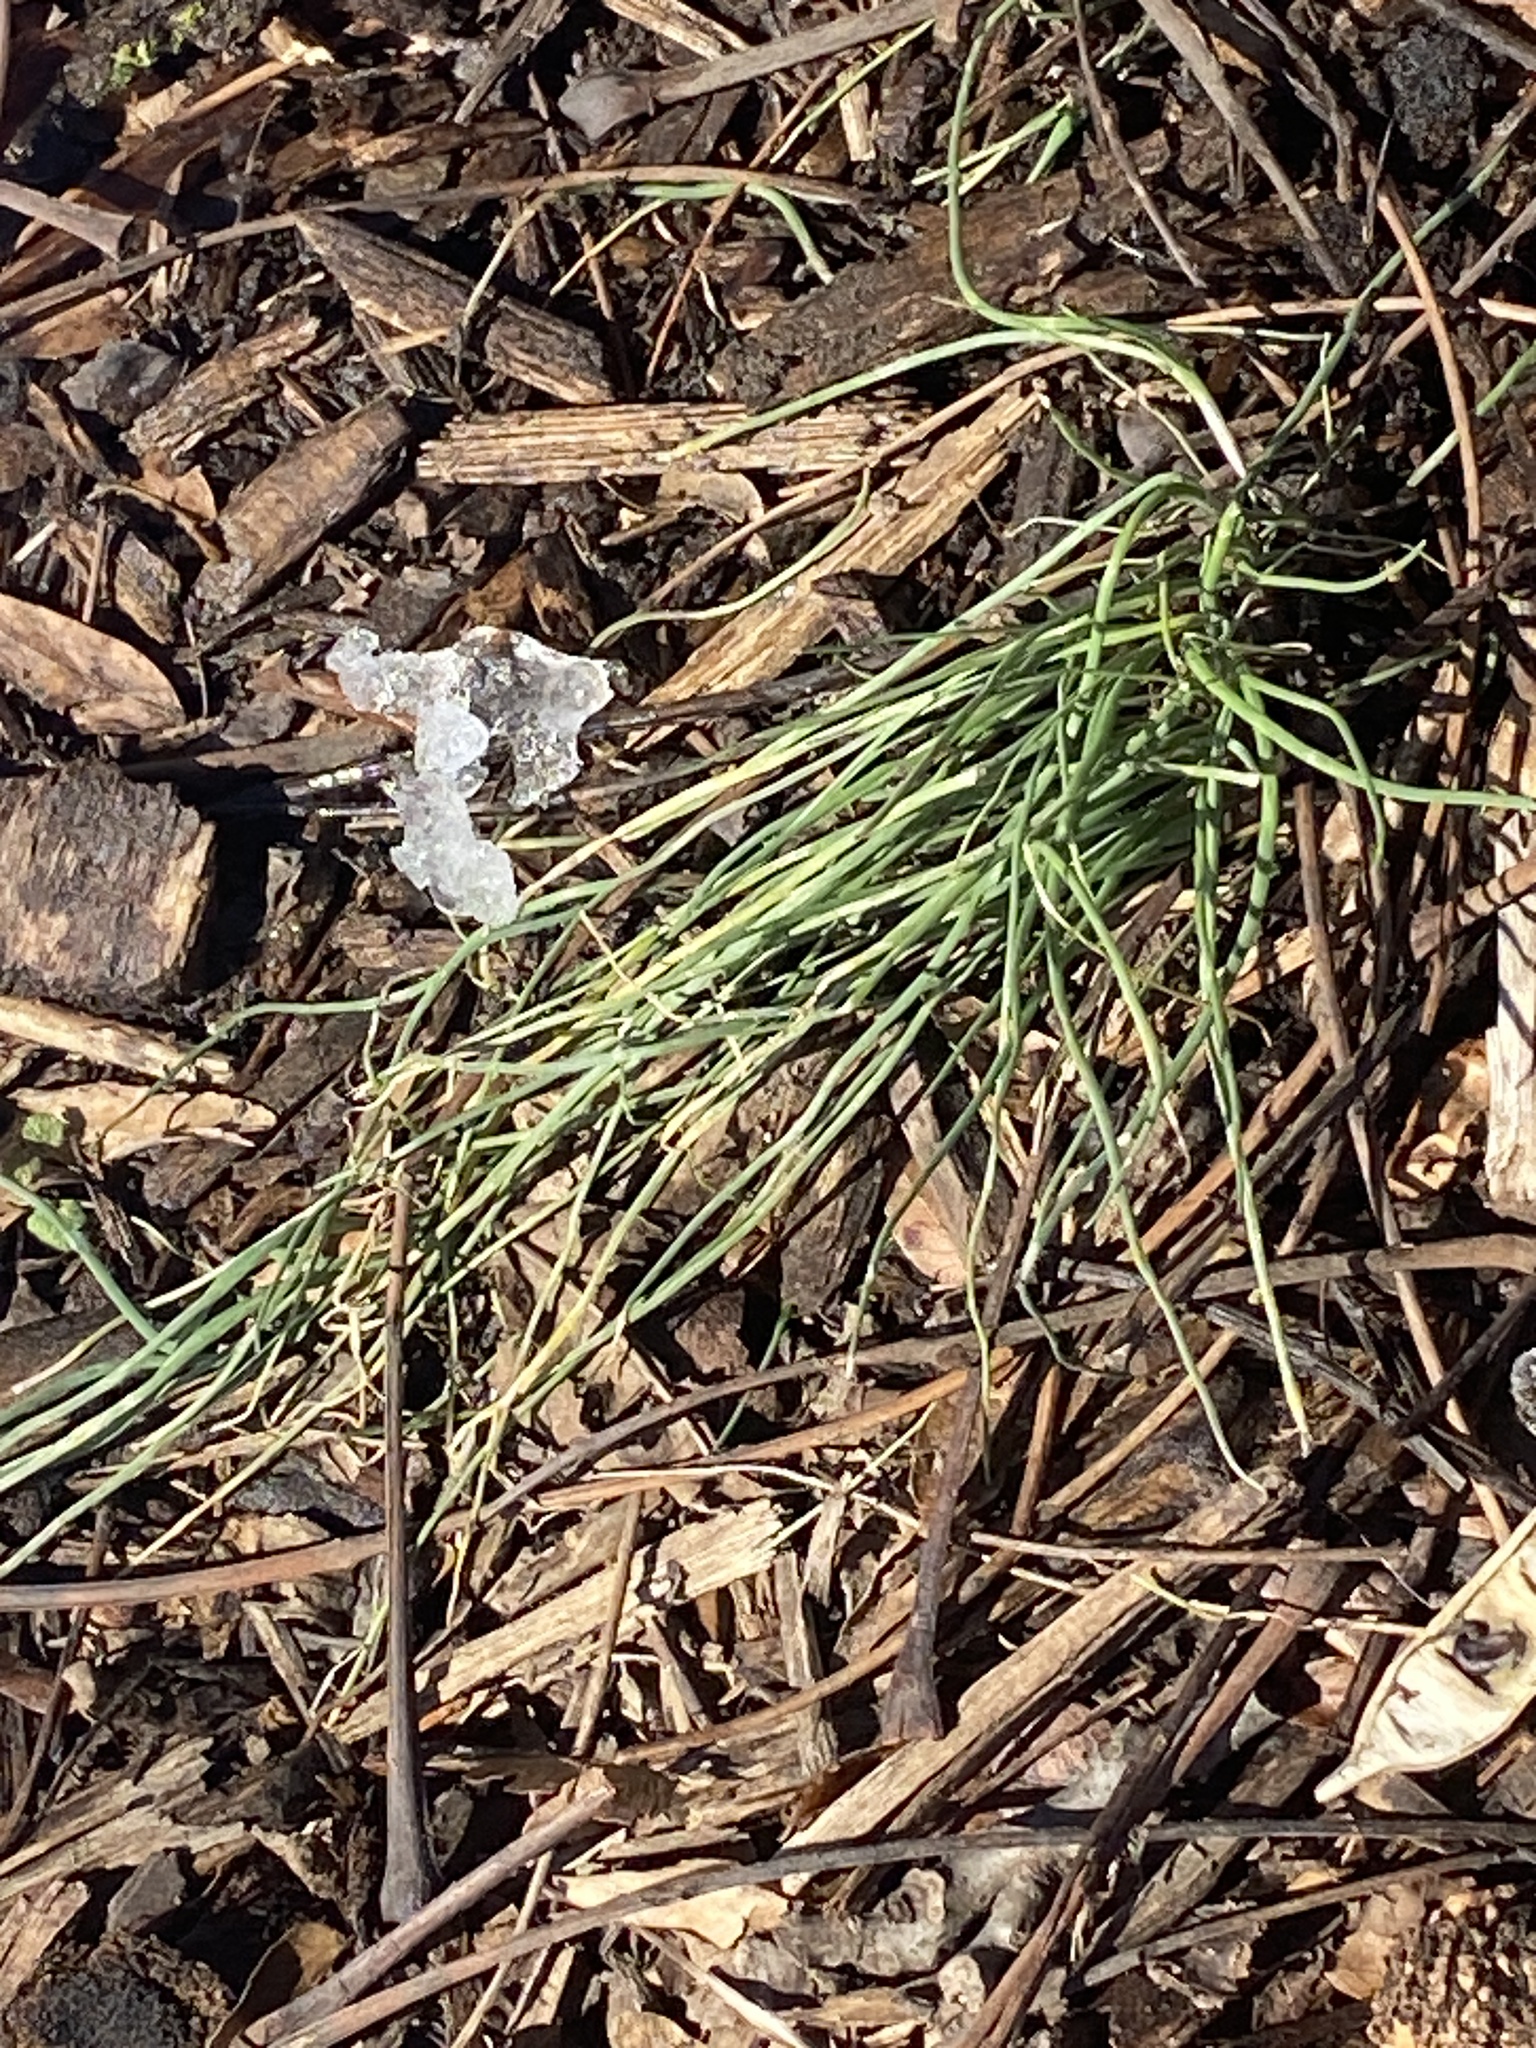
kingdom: Plantae
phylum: Tracheophyta
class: Liliopsida
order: Asparagales
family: Amaryllidaceae
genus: Allium
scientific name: Allium vineale
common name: Crow garlic
